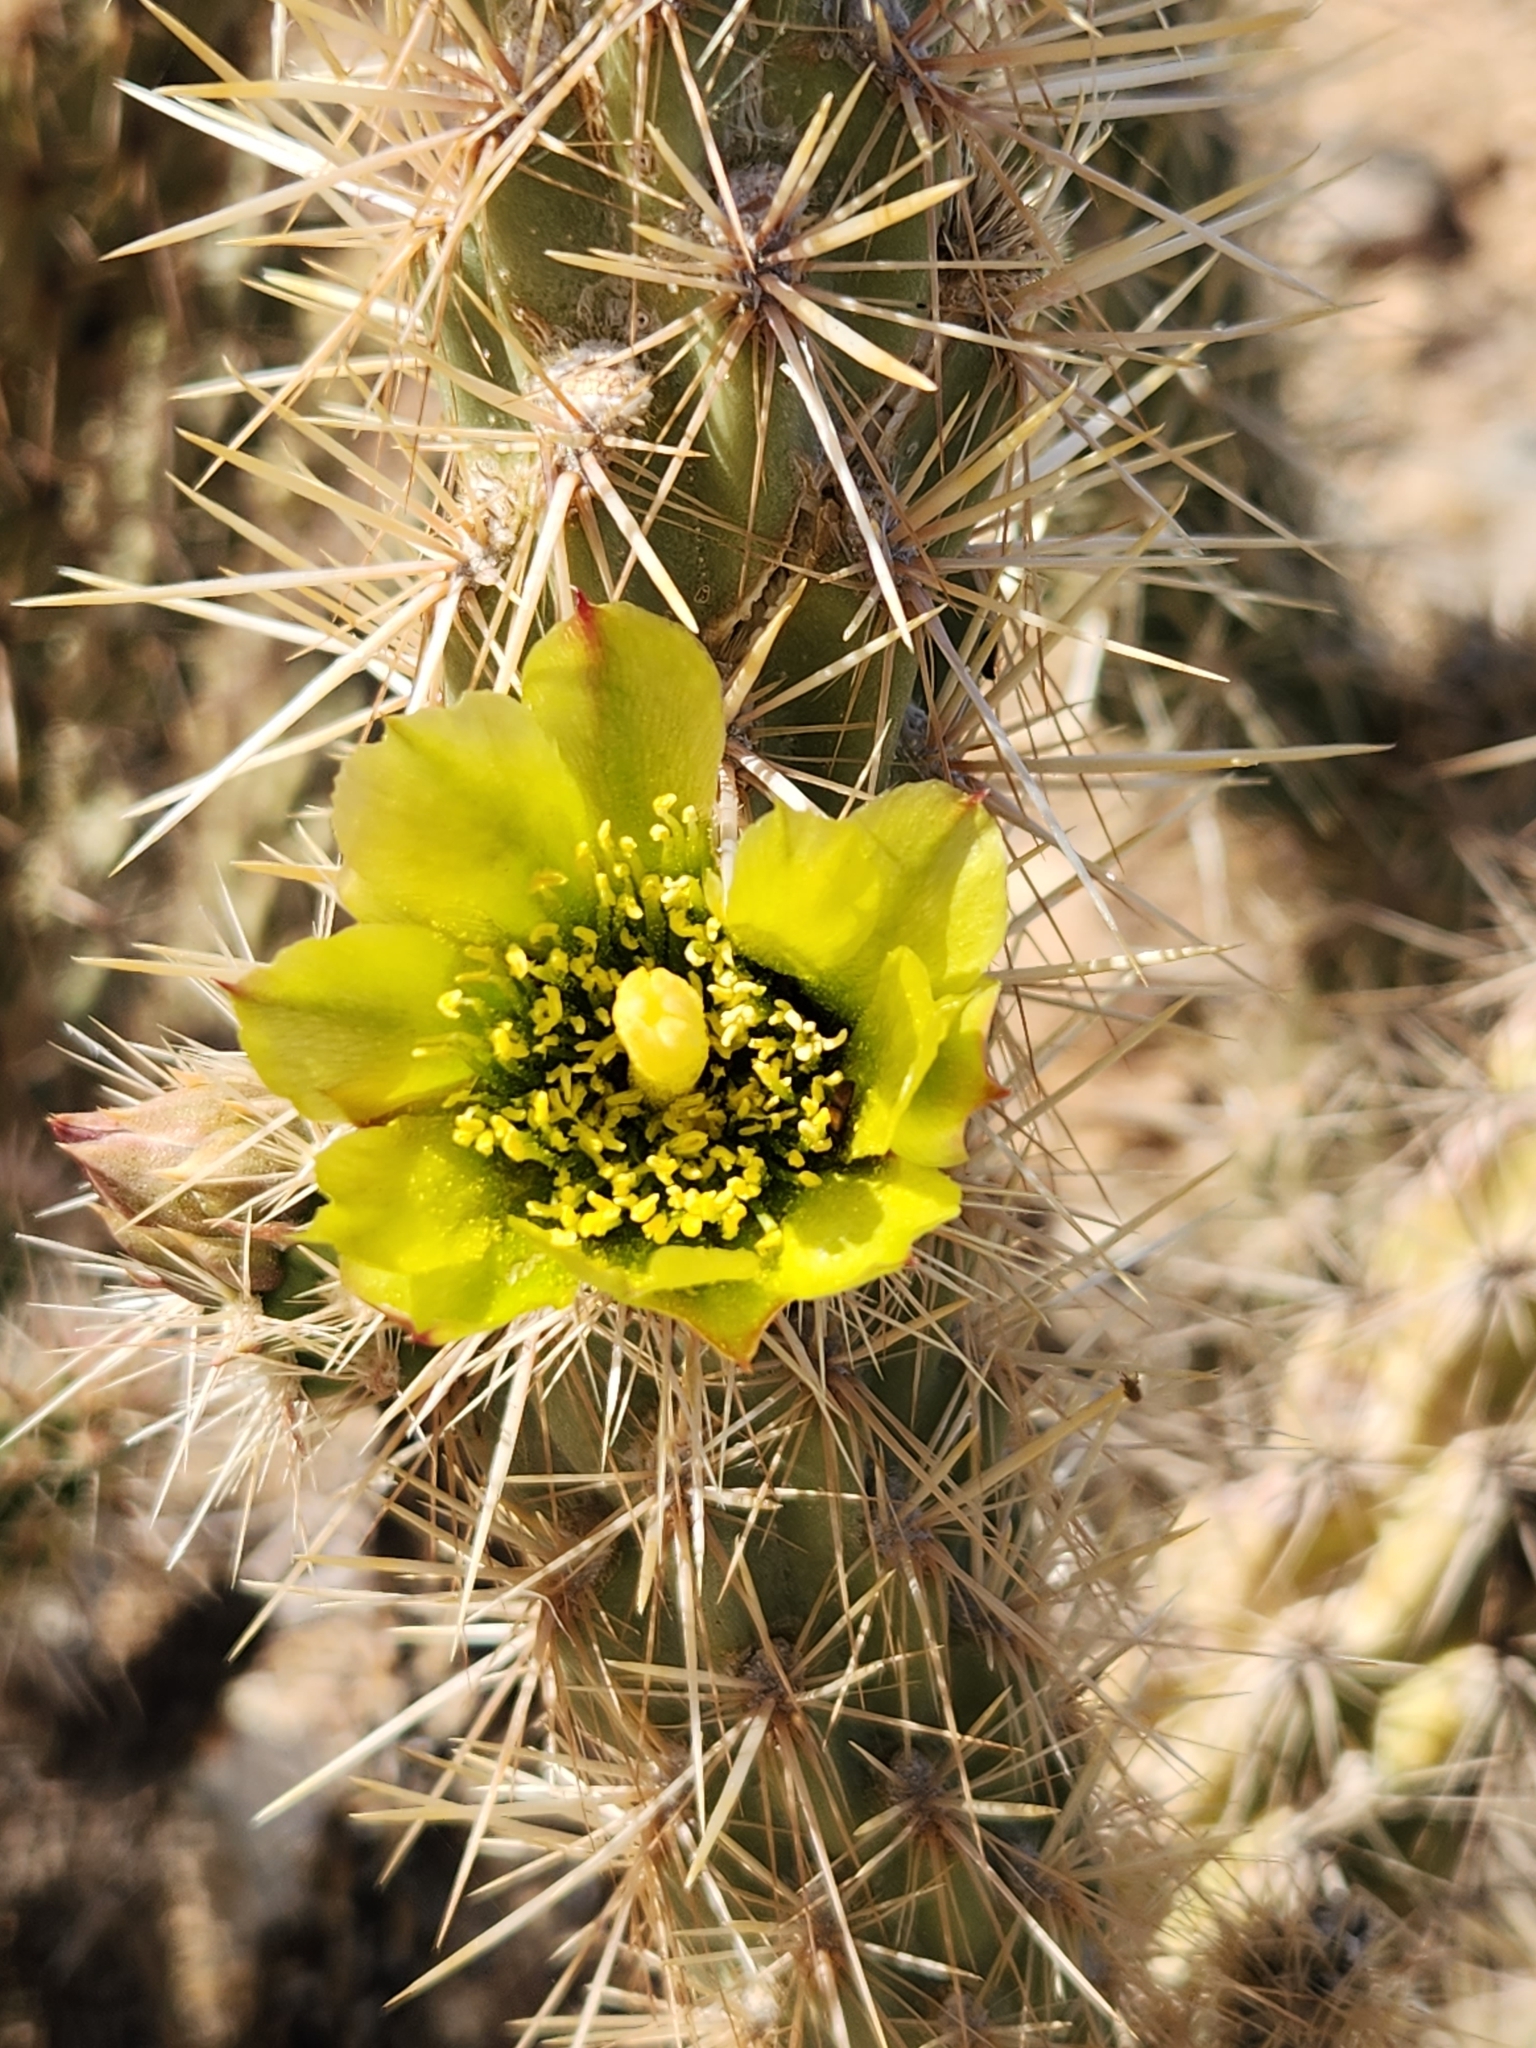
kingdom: Plantae
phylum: Tracheophyta
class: Magnoliopsida
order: Caryophyllales
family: Cactaceae
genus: Cylindropuntia
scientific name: Cylindropuntia ganderi
